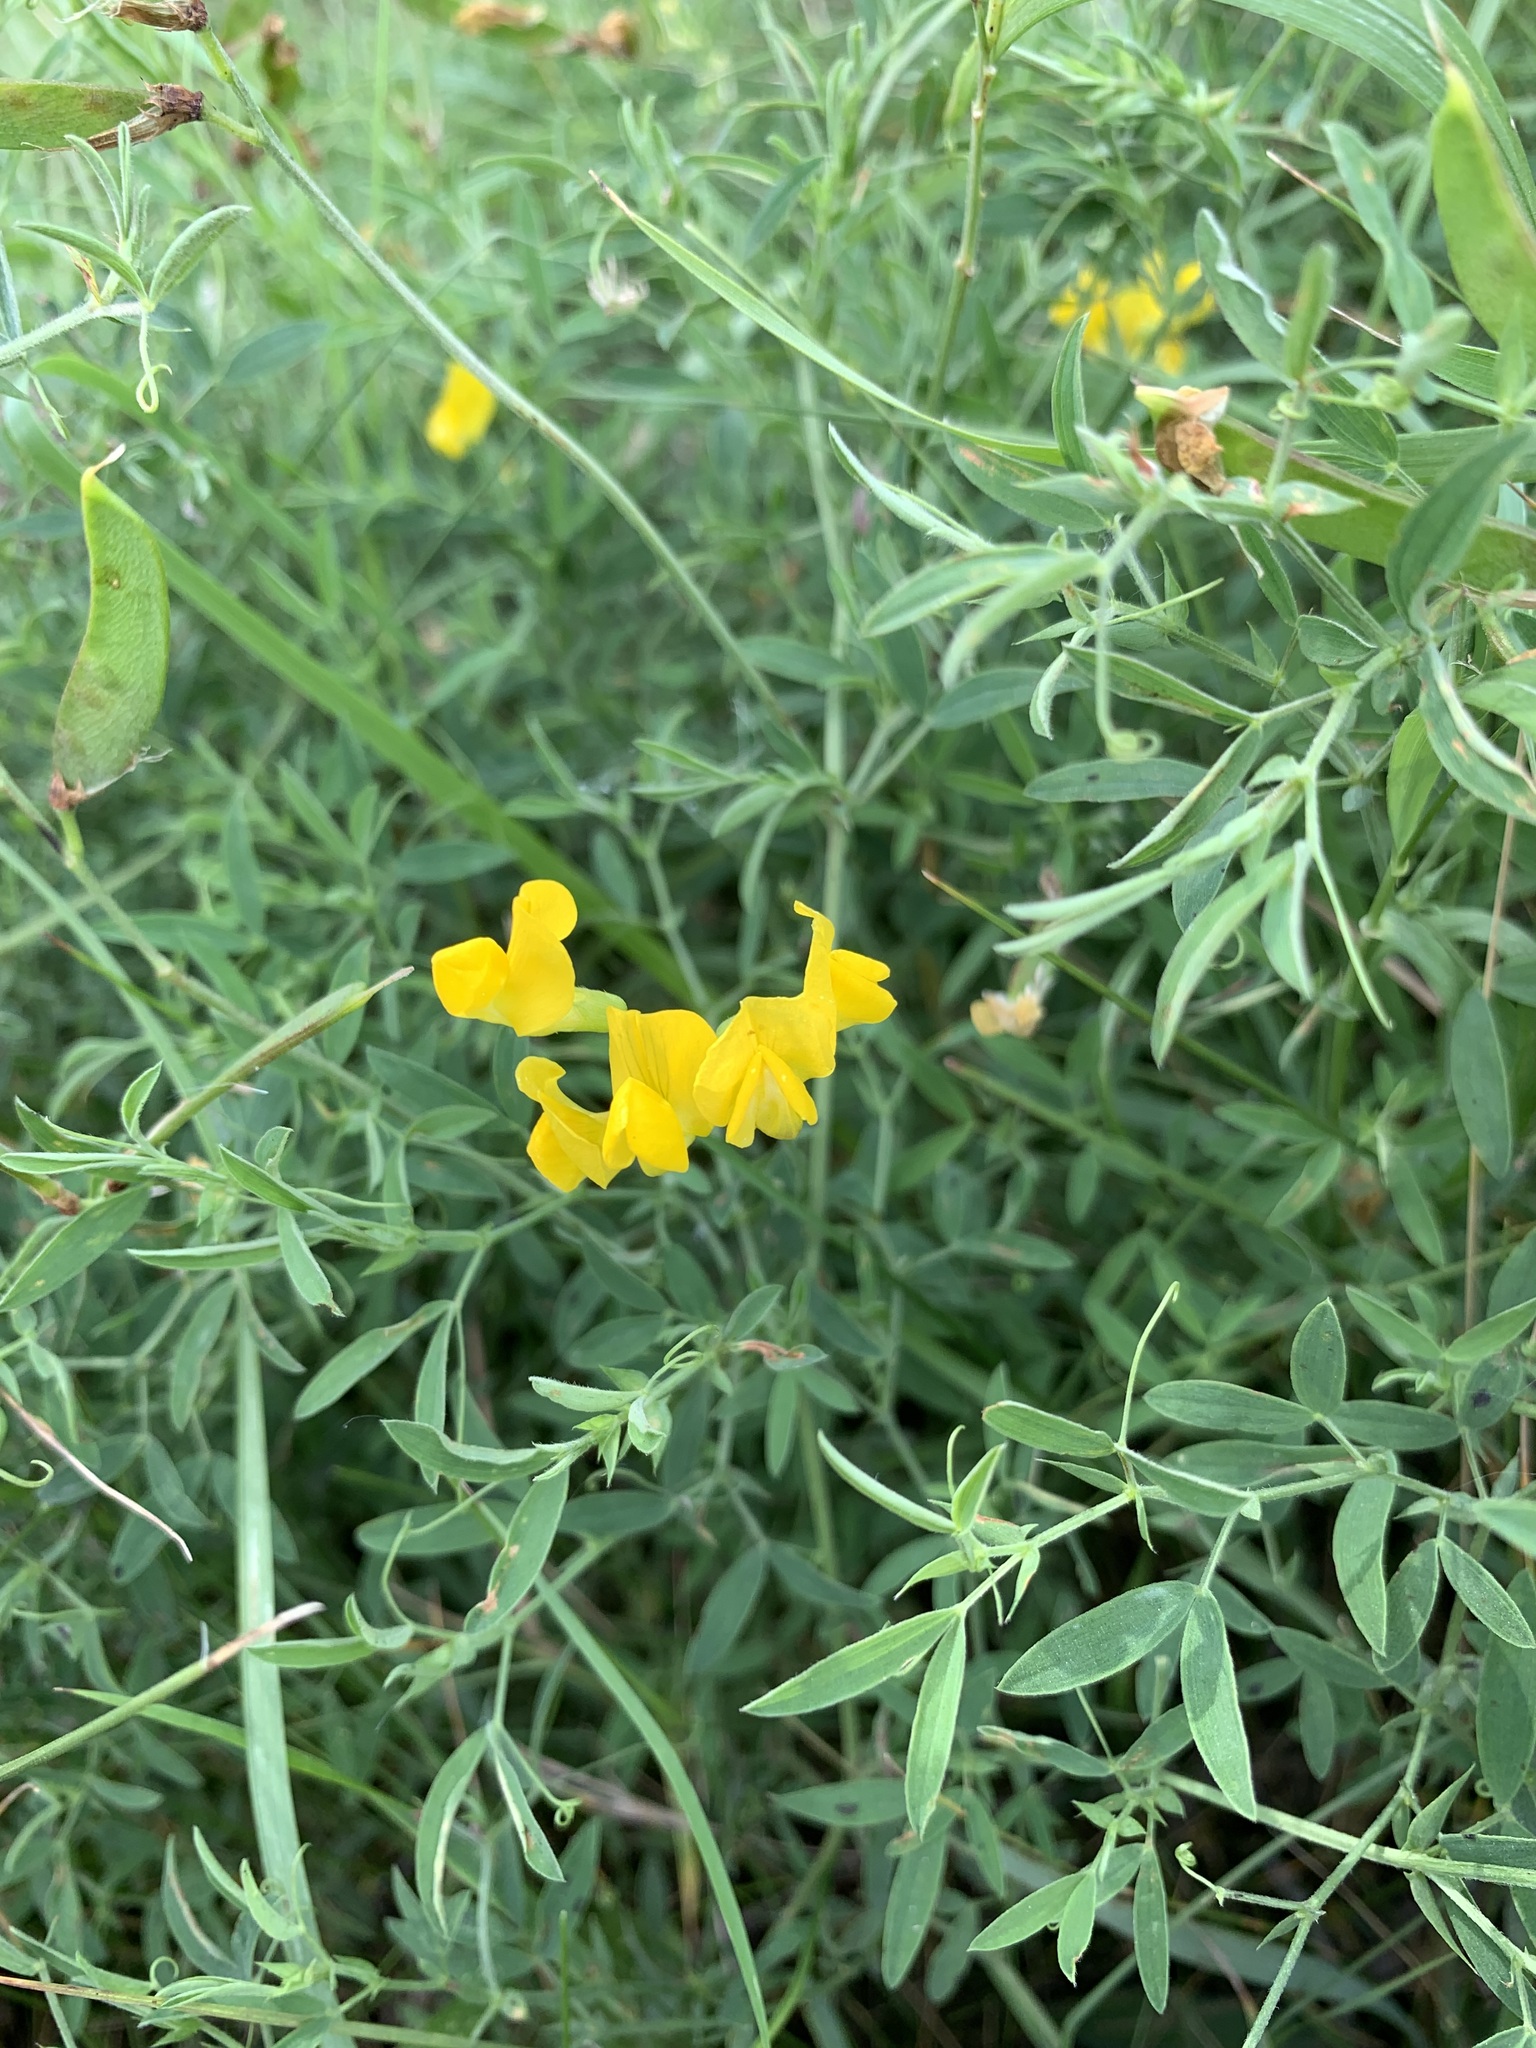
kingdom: Plantae
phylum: Tracheophyta
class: Magnoliopsida
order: Fabales
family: Fabaceae
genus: Lathyrus
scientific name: Lathyrus pratensis
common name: Meadow vetchling
